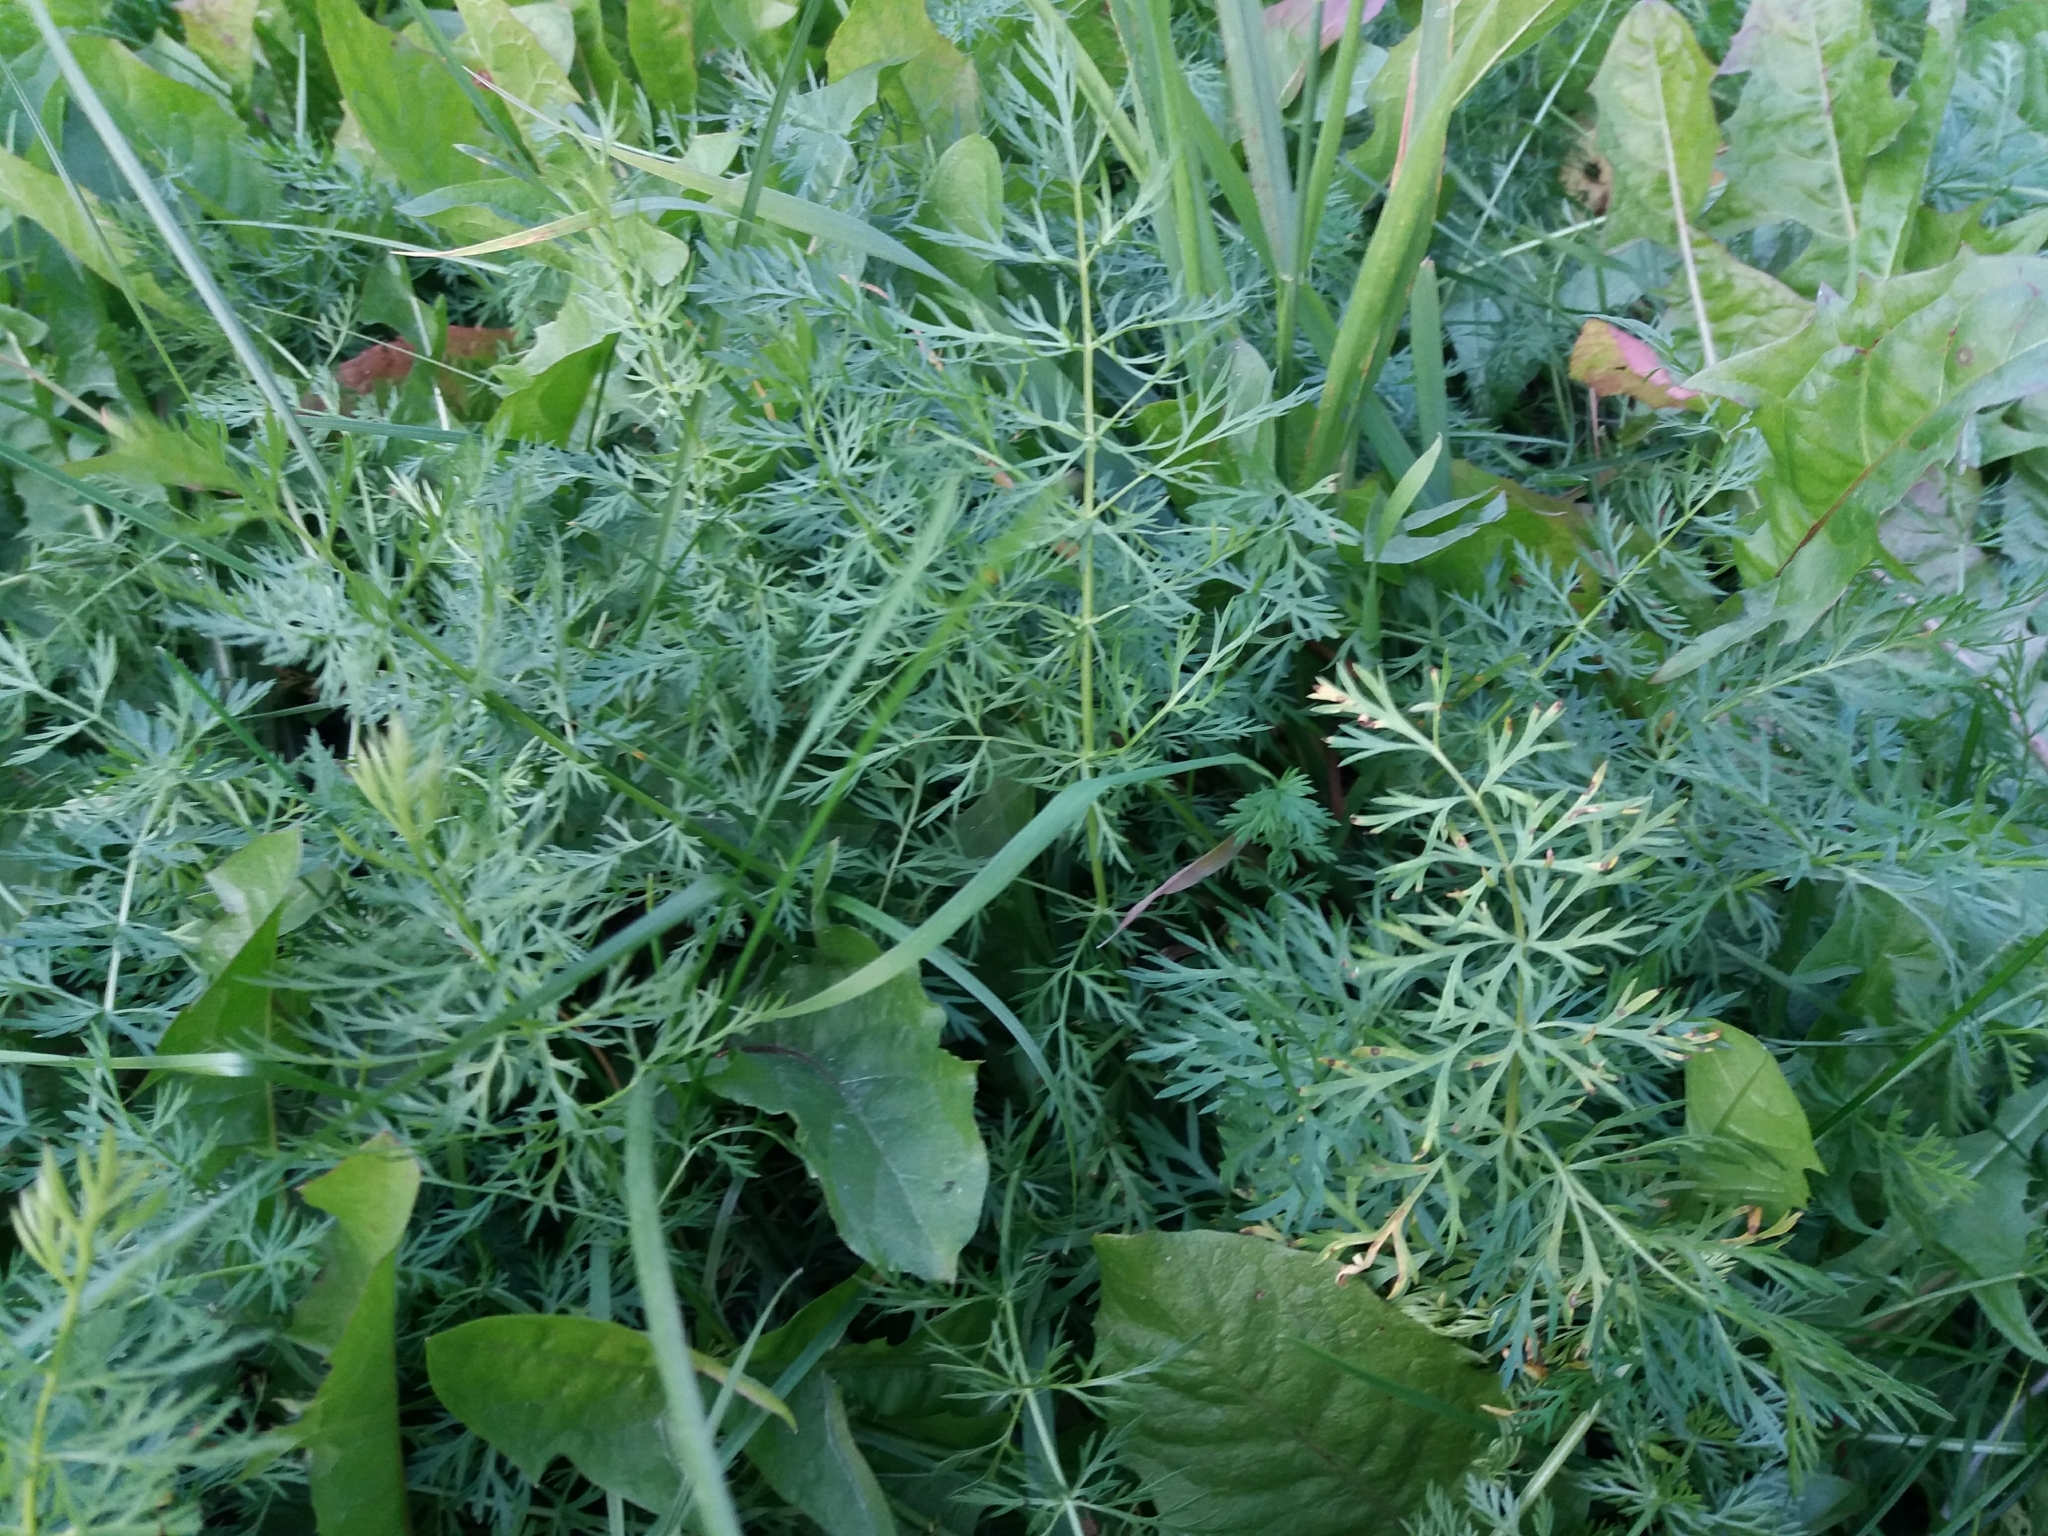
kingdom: Plantae
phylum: Tracheophyta
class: Magnoliopsida
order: Apiales
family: Apiaceae
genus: Carum
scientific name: Carum carvi
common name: Caraway
